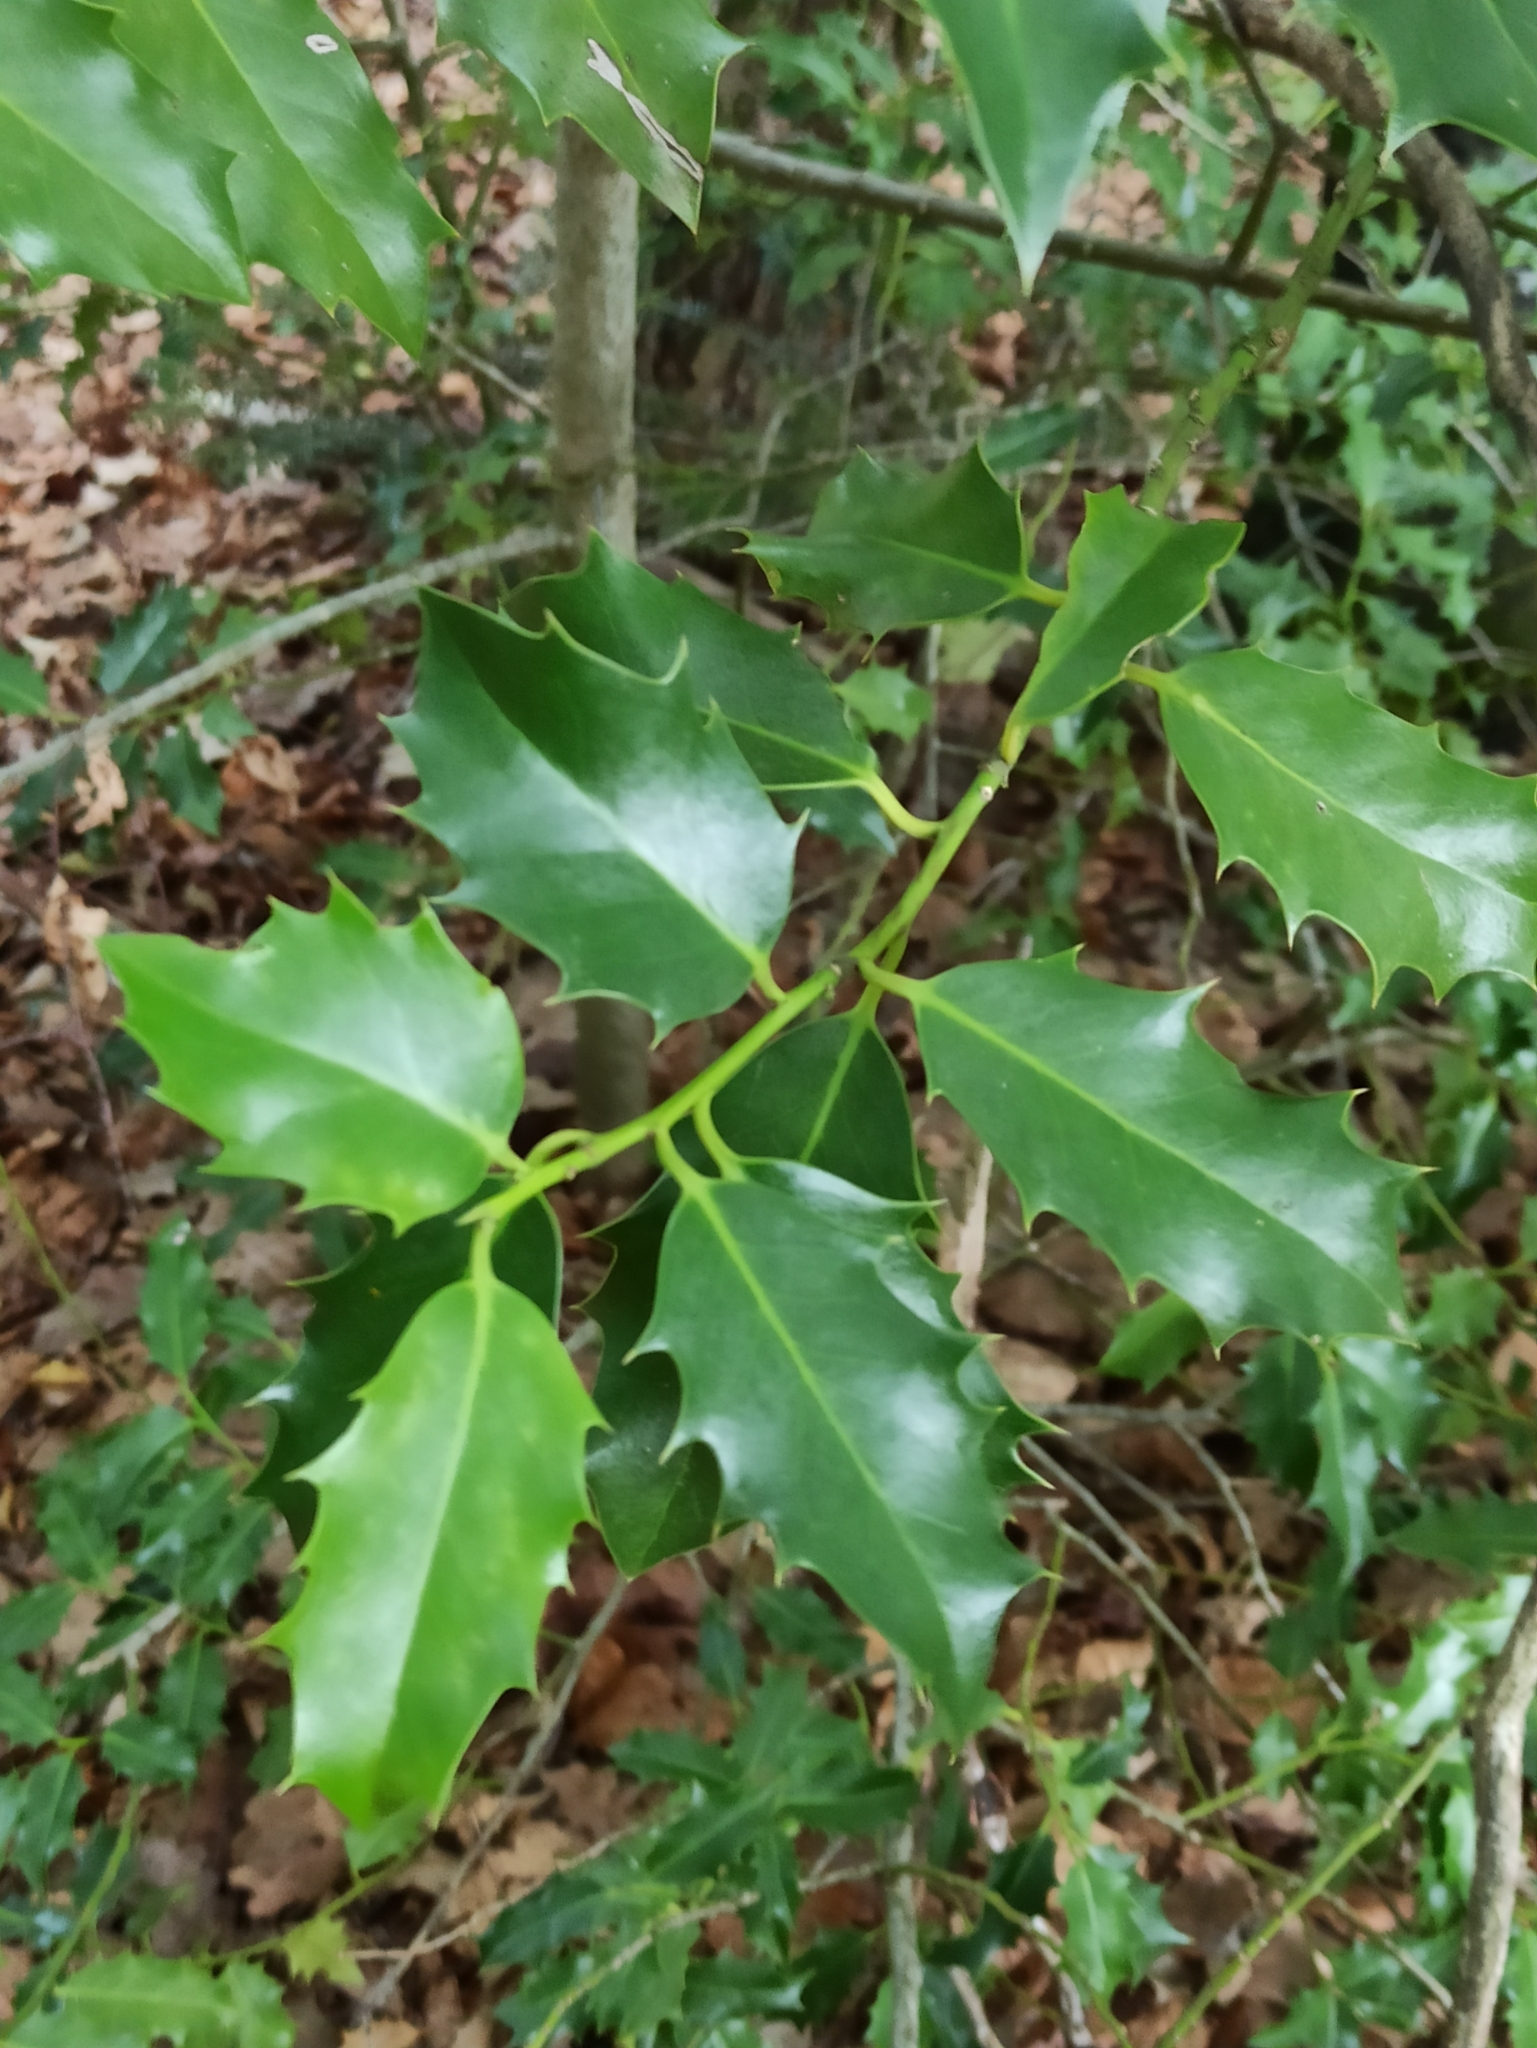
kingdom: Plantae
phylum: Tracheophyta
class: Magnoliopsida
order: Aquifoliales
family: Aquifoliaceae
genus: Ilex
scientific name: Ilex aquifolium
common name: English holly
